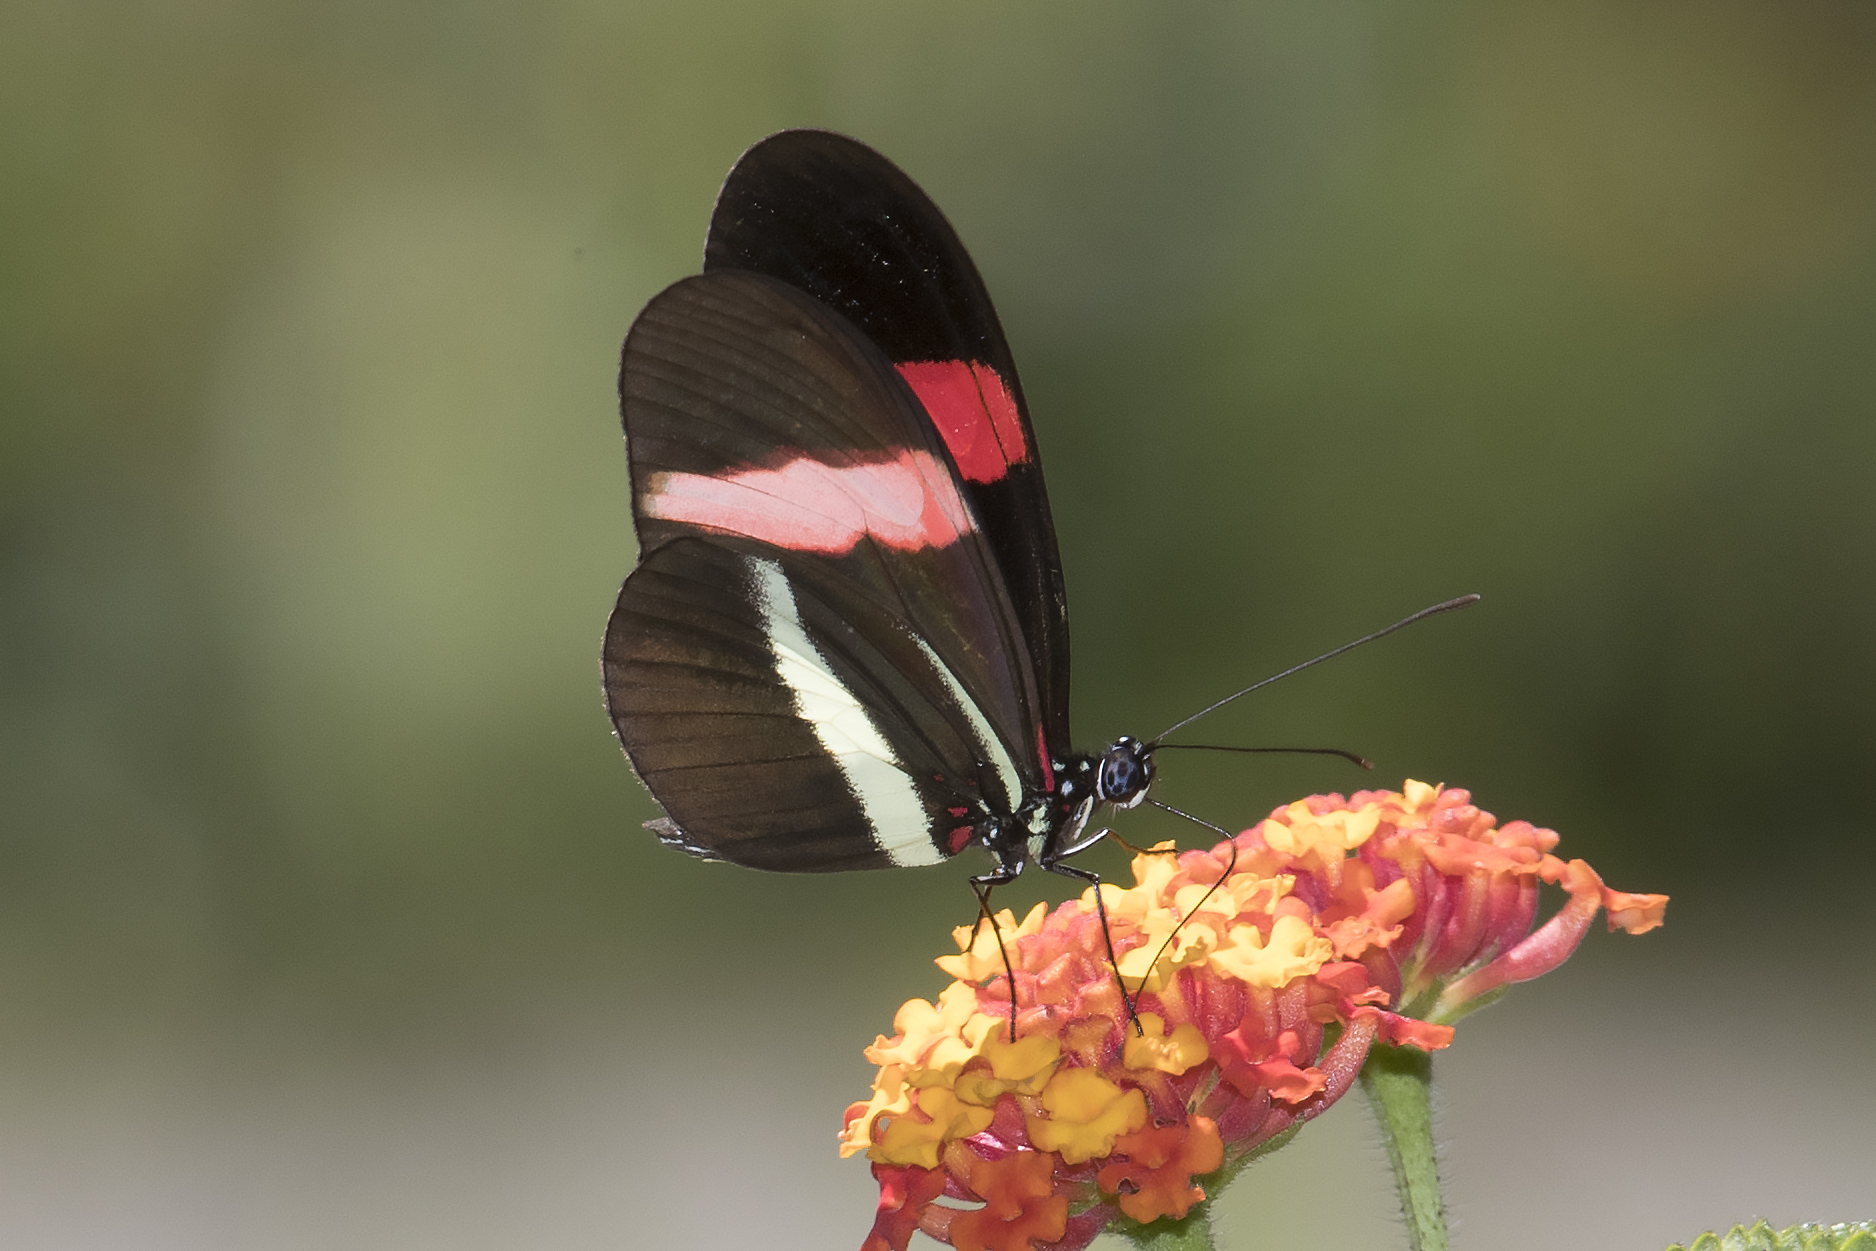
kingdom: Animalia
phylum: Arthropoda
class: Insecta
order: Lepidoptera
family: Nymphalidae
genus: Tirumala
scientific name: Tirumala petiverana
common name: Blue monarch
